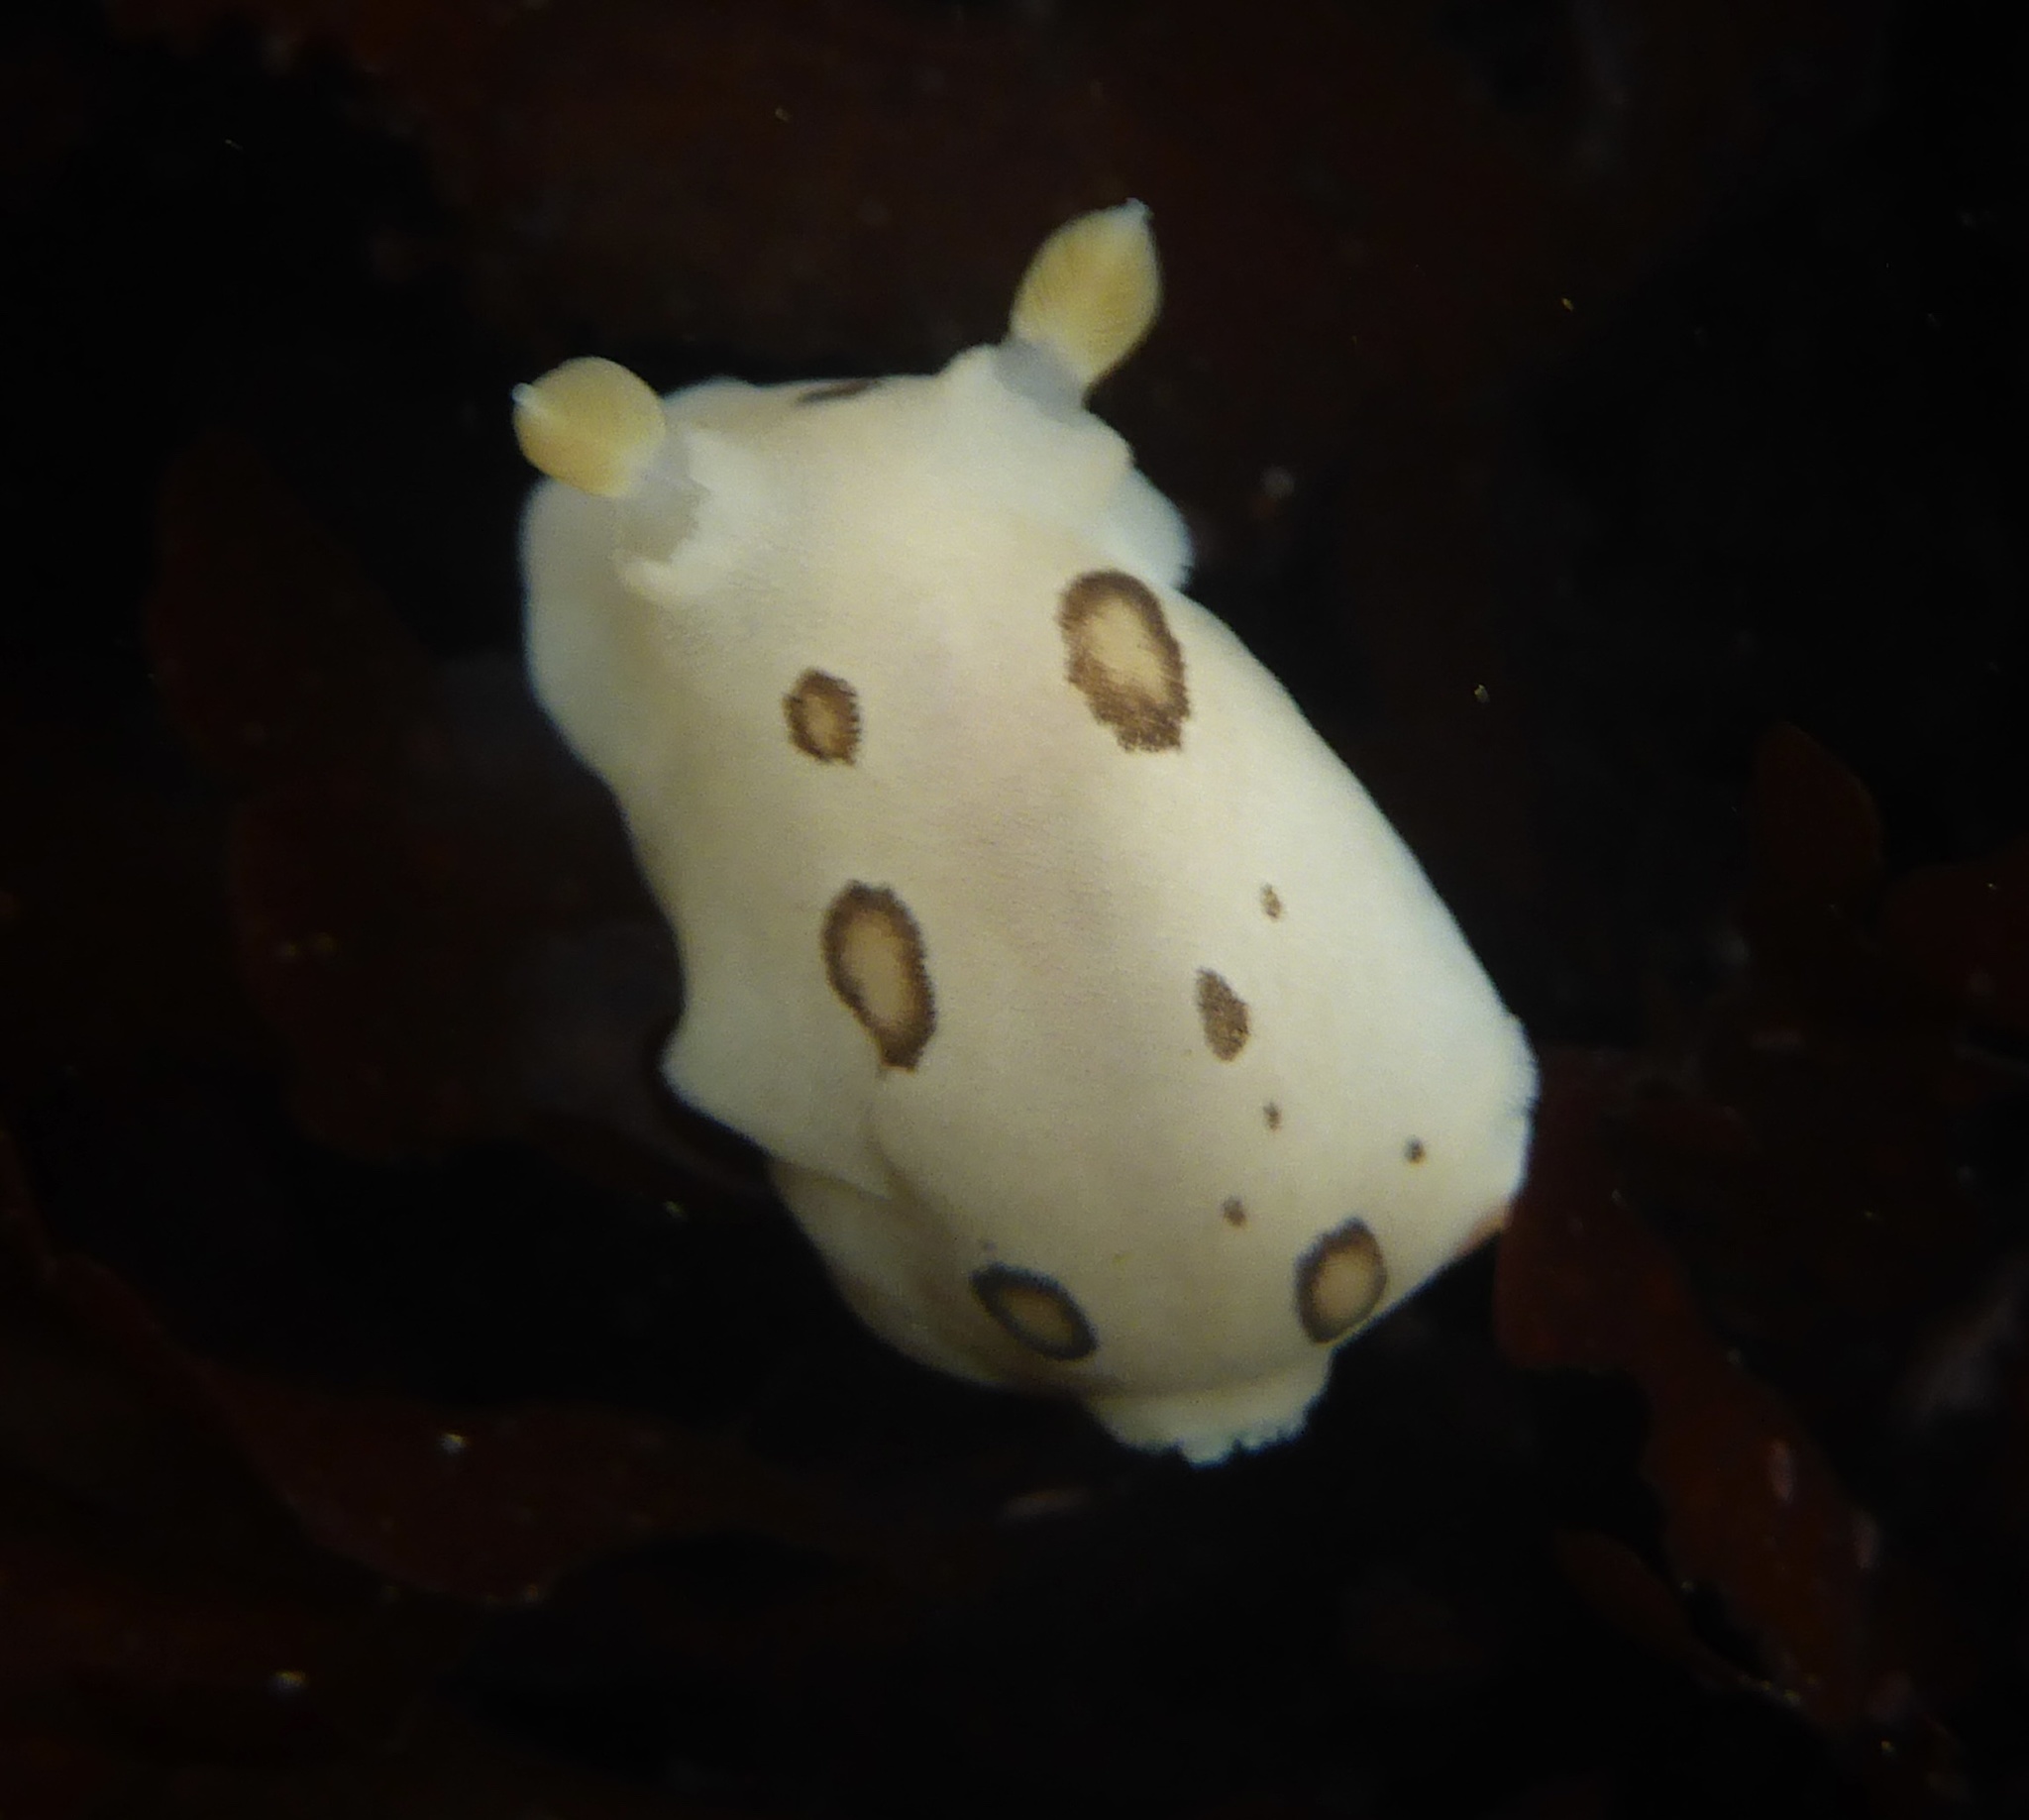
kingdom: Animalia
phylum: Mollusca
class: Gastropoda
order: Nudibranchia
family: Discodorididae
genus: Diaulula
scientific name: Diaulula sandiegensis
